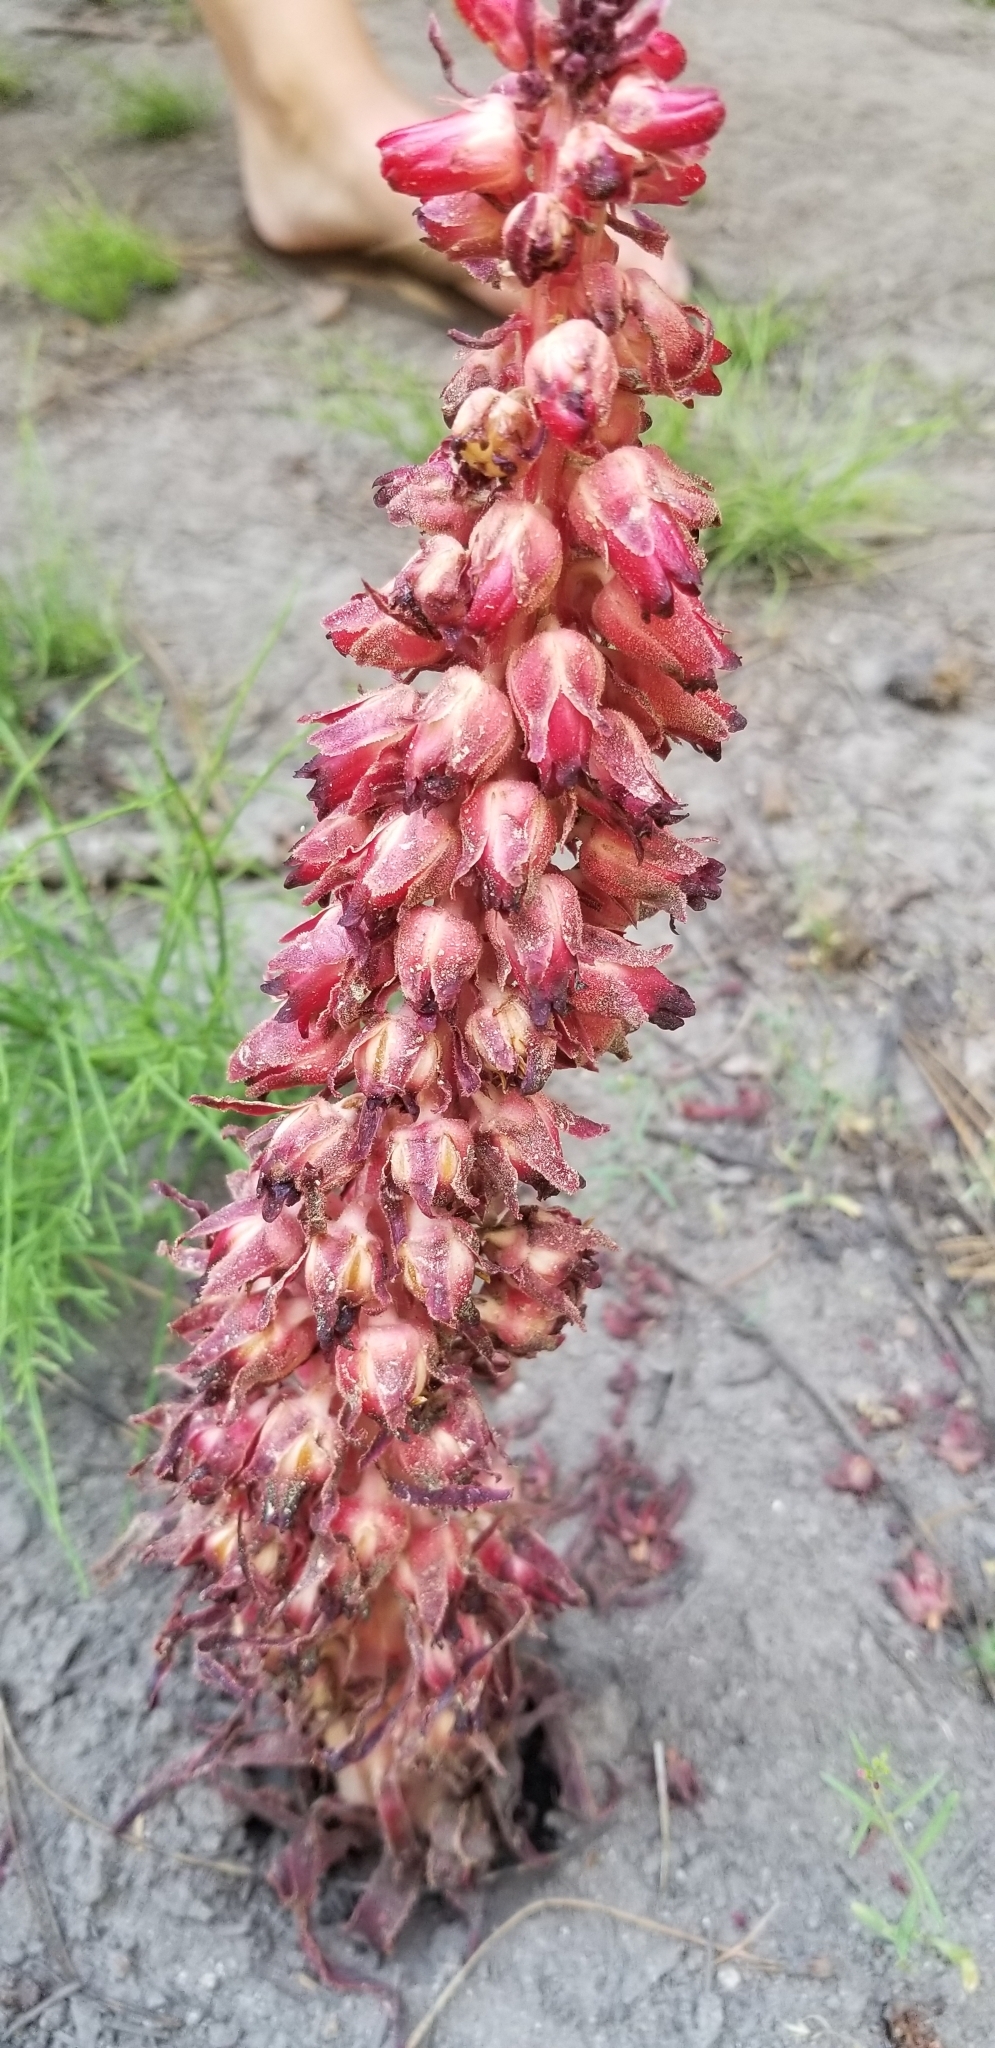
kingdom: Plantae
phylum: Tracheophyta
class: Magnoliopsida
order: Ericales
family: Ericaceae
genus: Sarcodes
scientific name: Sarcodes sanguinea
